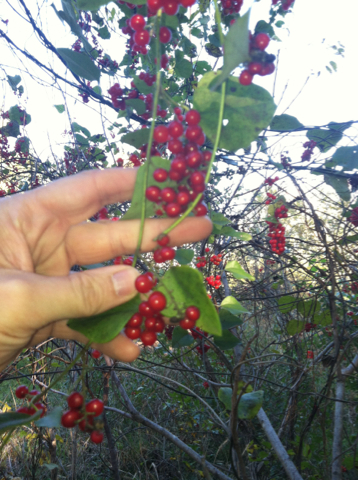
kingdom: Plantae
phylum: Tracheophyta
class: Magnoliopsida
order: Ranunculales
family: Menispermaceae
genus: Cocculus
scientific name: Cocculus carolinus
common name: Carolina moonseed
